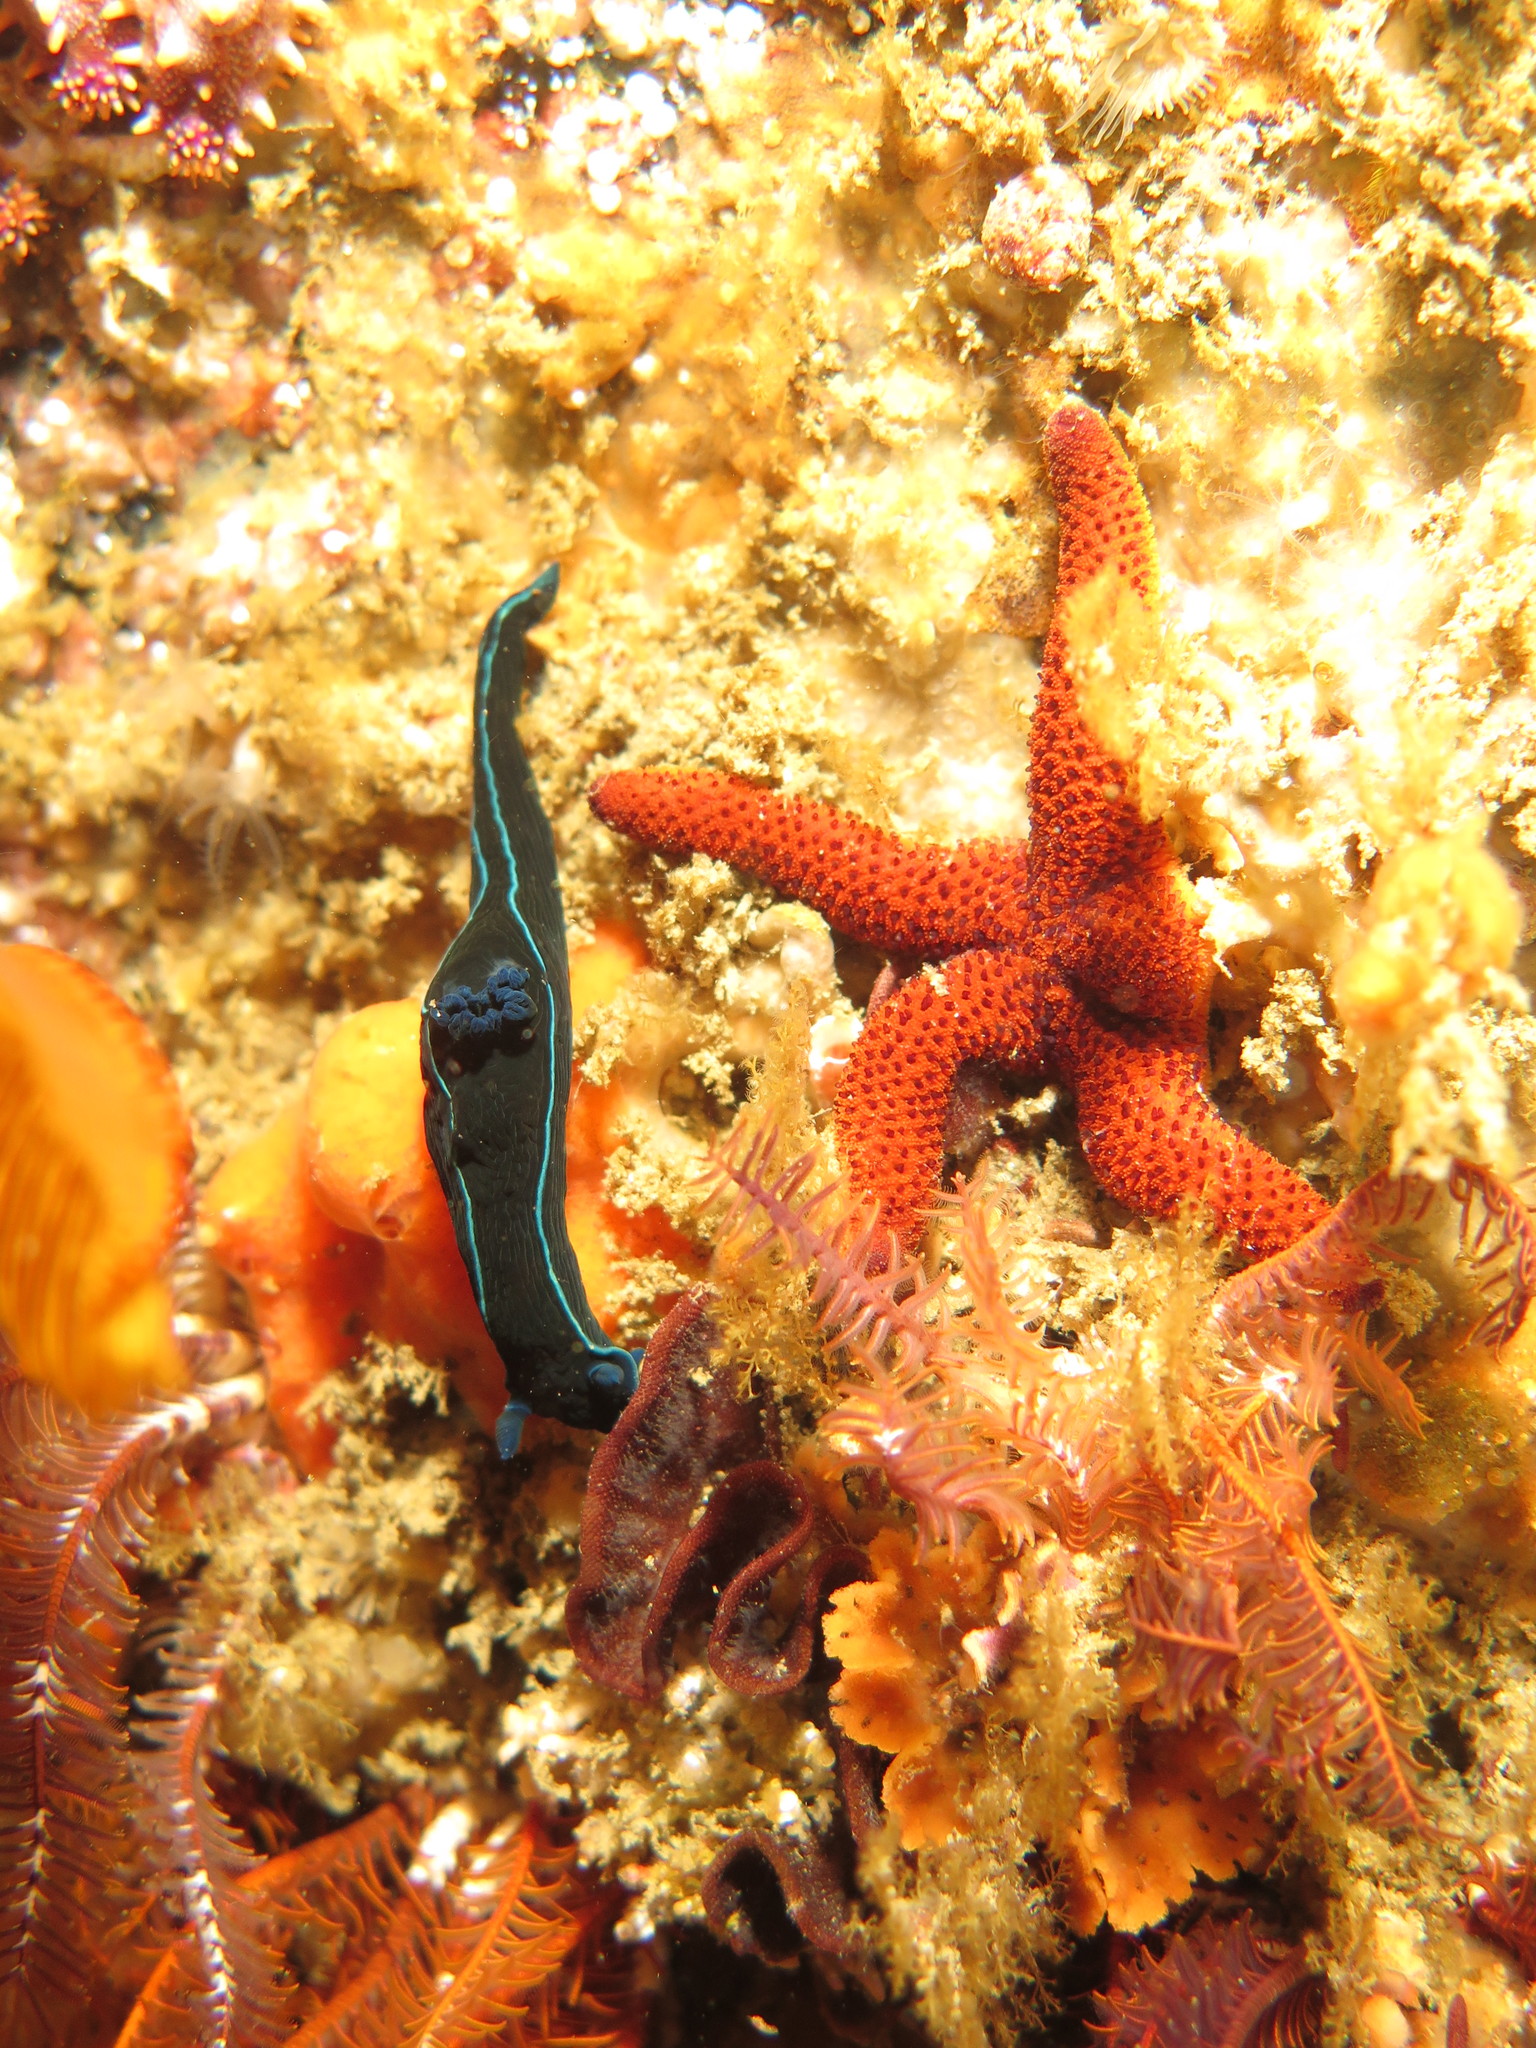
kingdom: Animalia
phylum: Mollusca
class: Gastropoda
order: Nudibranchia
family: Polyceridae
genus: Tambja
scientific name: Tambja capensis
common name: Black nudibranch
